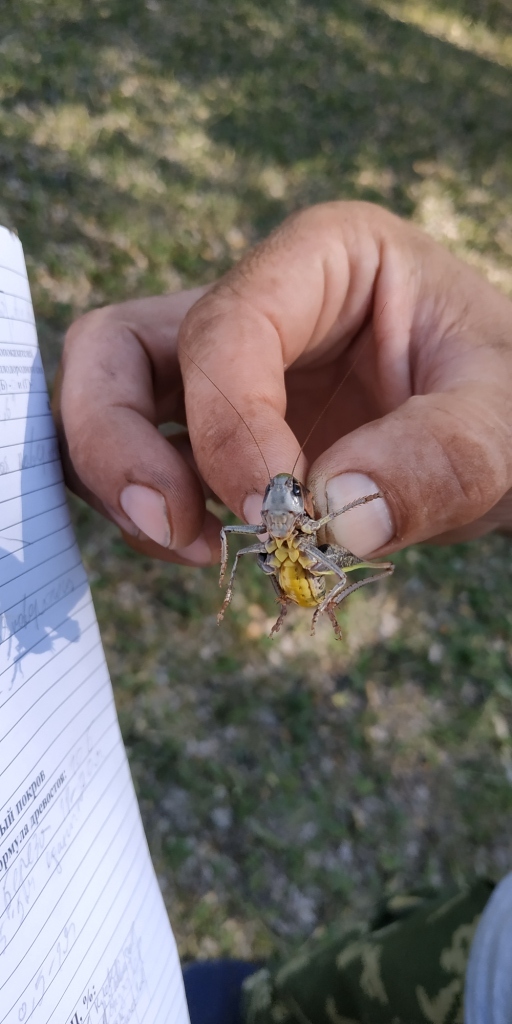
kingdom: Animalia
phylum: Arthropoda
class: Insecta
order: Orthoptera
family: Tettigoniidae
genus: Decticus
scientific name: Decticus verrucivorus
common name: Wart-biter
